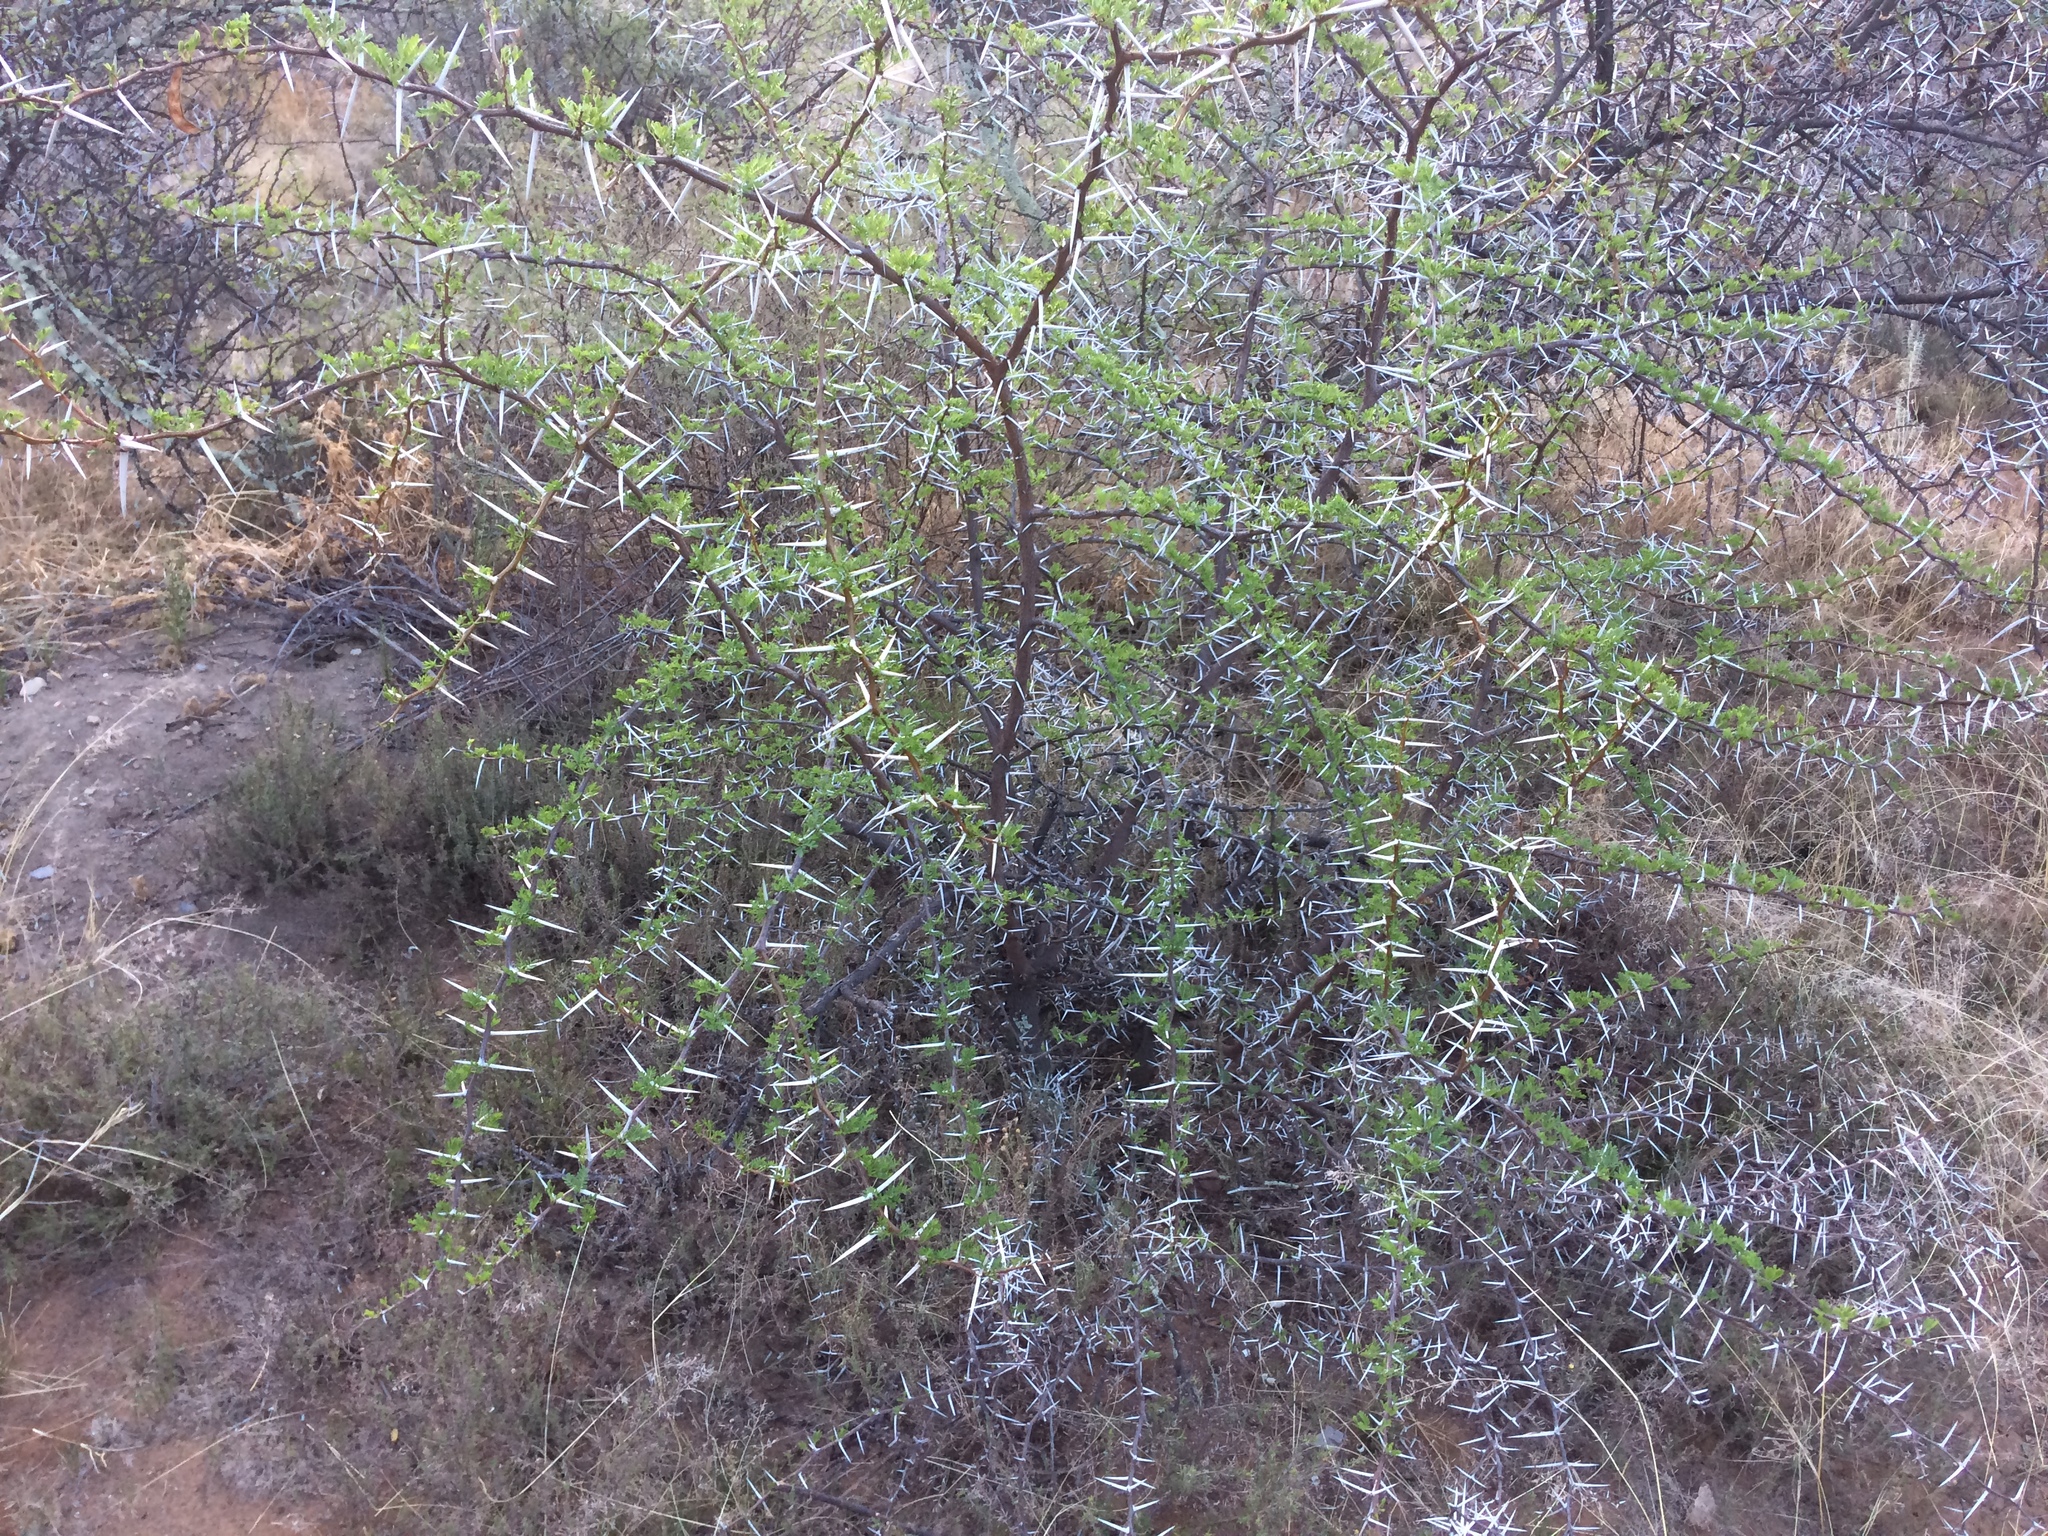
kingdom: Plantae
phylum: Tracheophyta
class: Magnoliopsida
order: Fabales
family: Fabaceae
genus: Vachellia
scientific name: Vachellia karroo
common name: Sweet thorn
